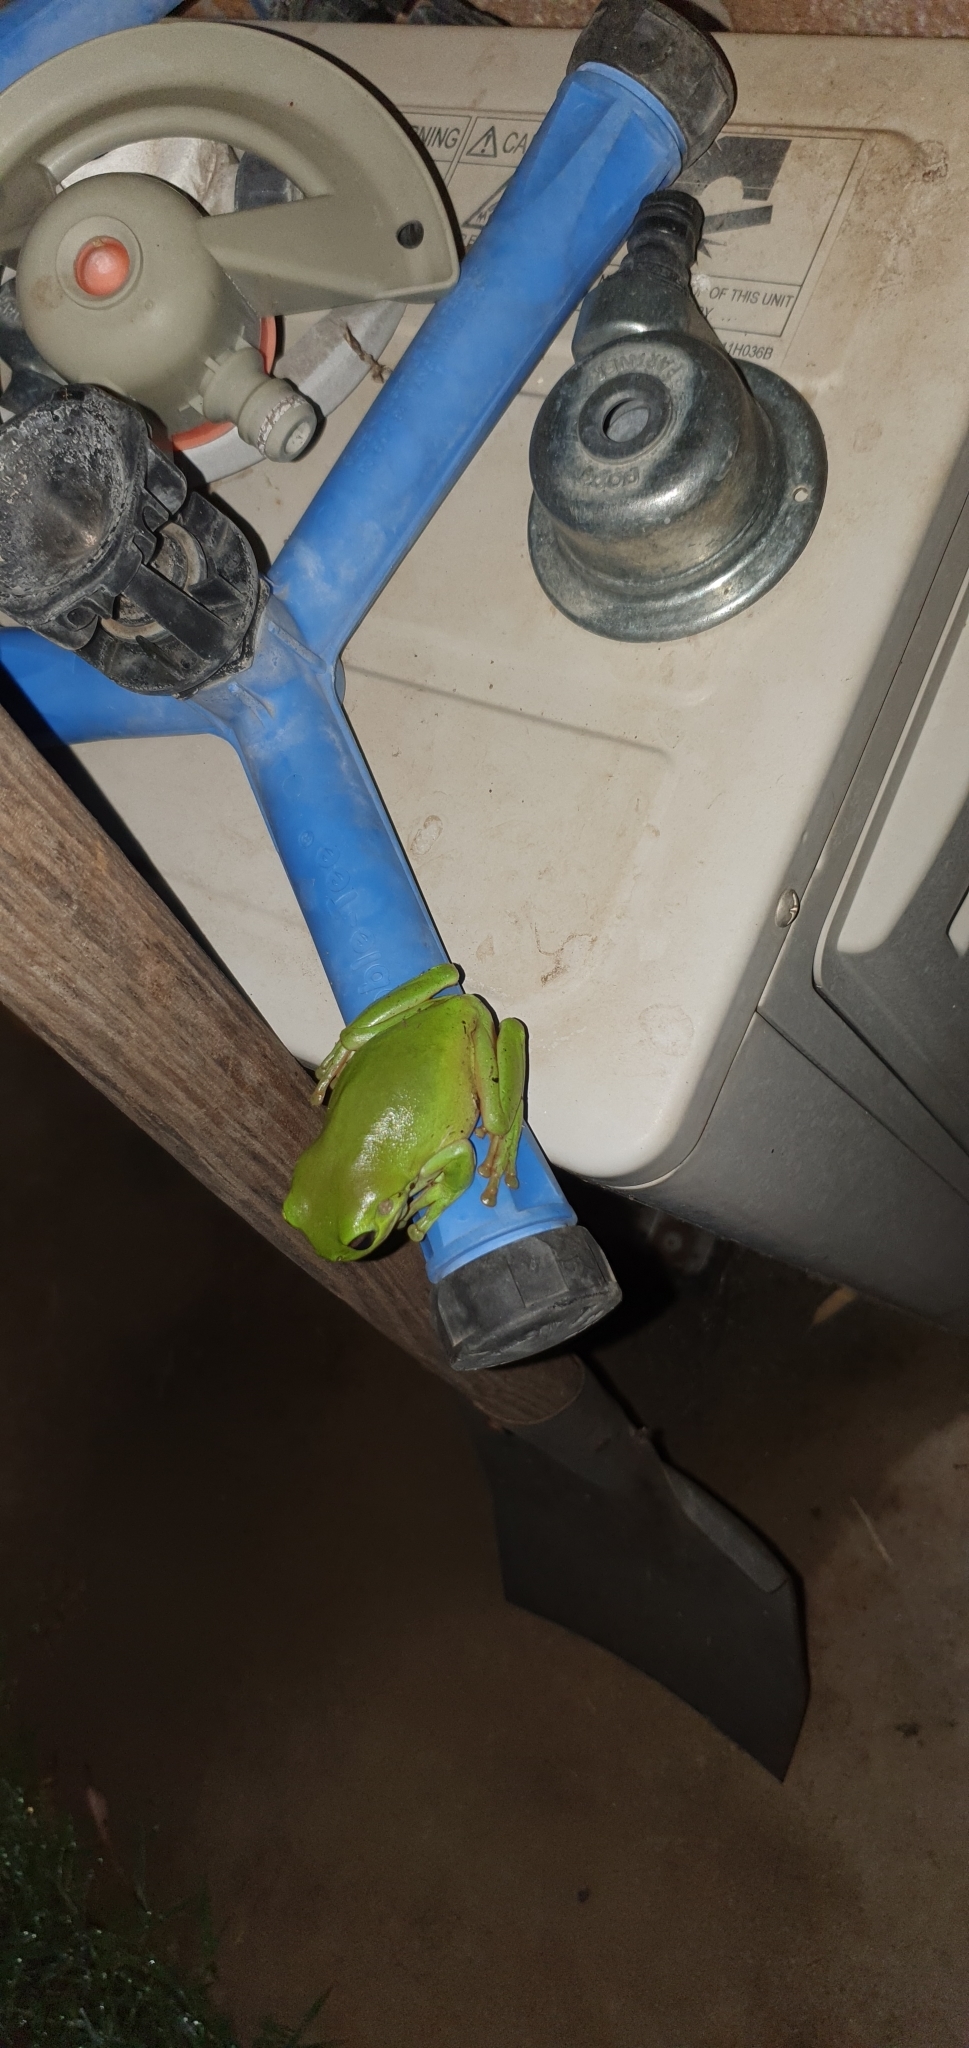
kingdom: Animalia
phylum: Chordata
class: Amphibia
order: Anura
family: Pelodryadidae
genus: Ranoidea
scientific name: Ranoidea caerulea
